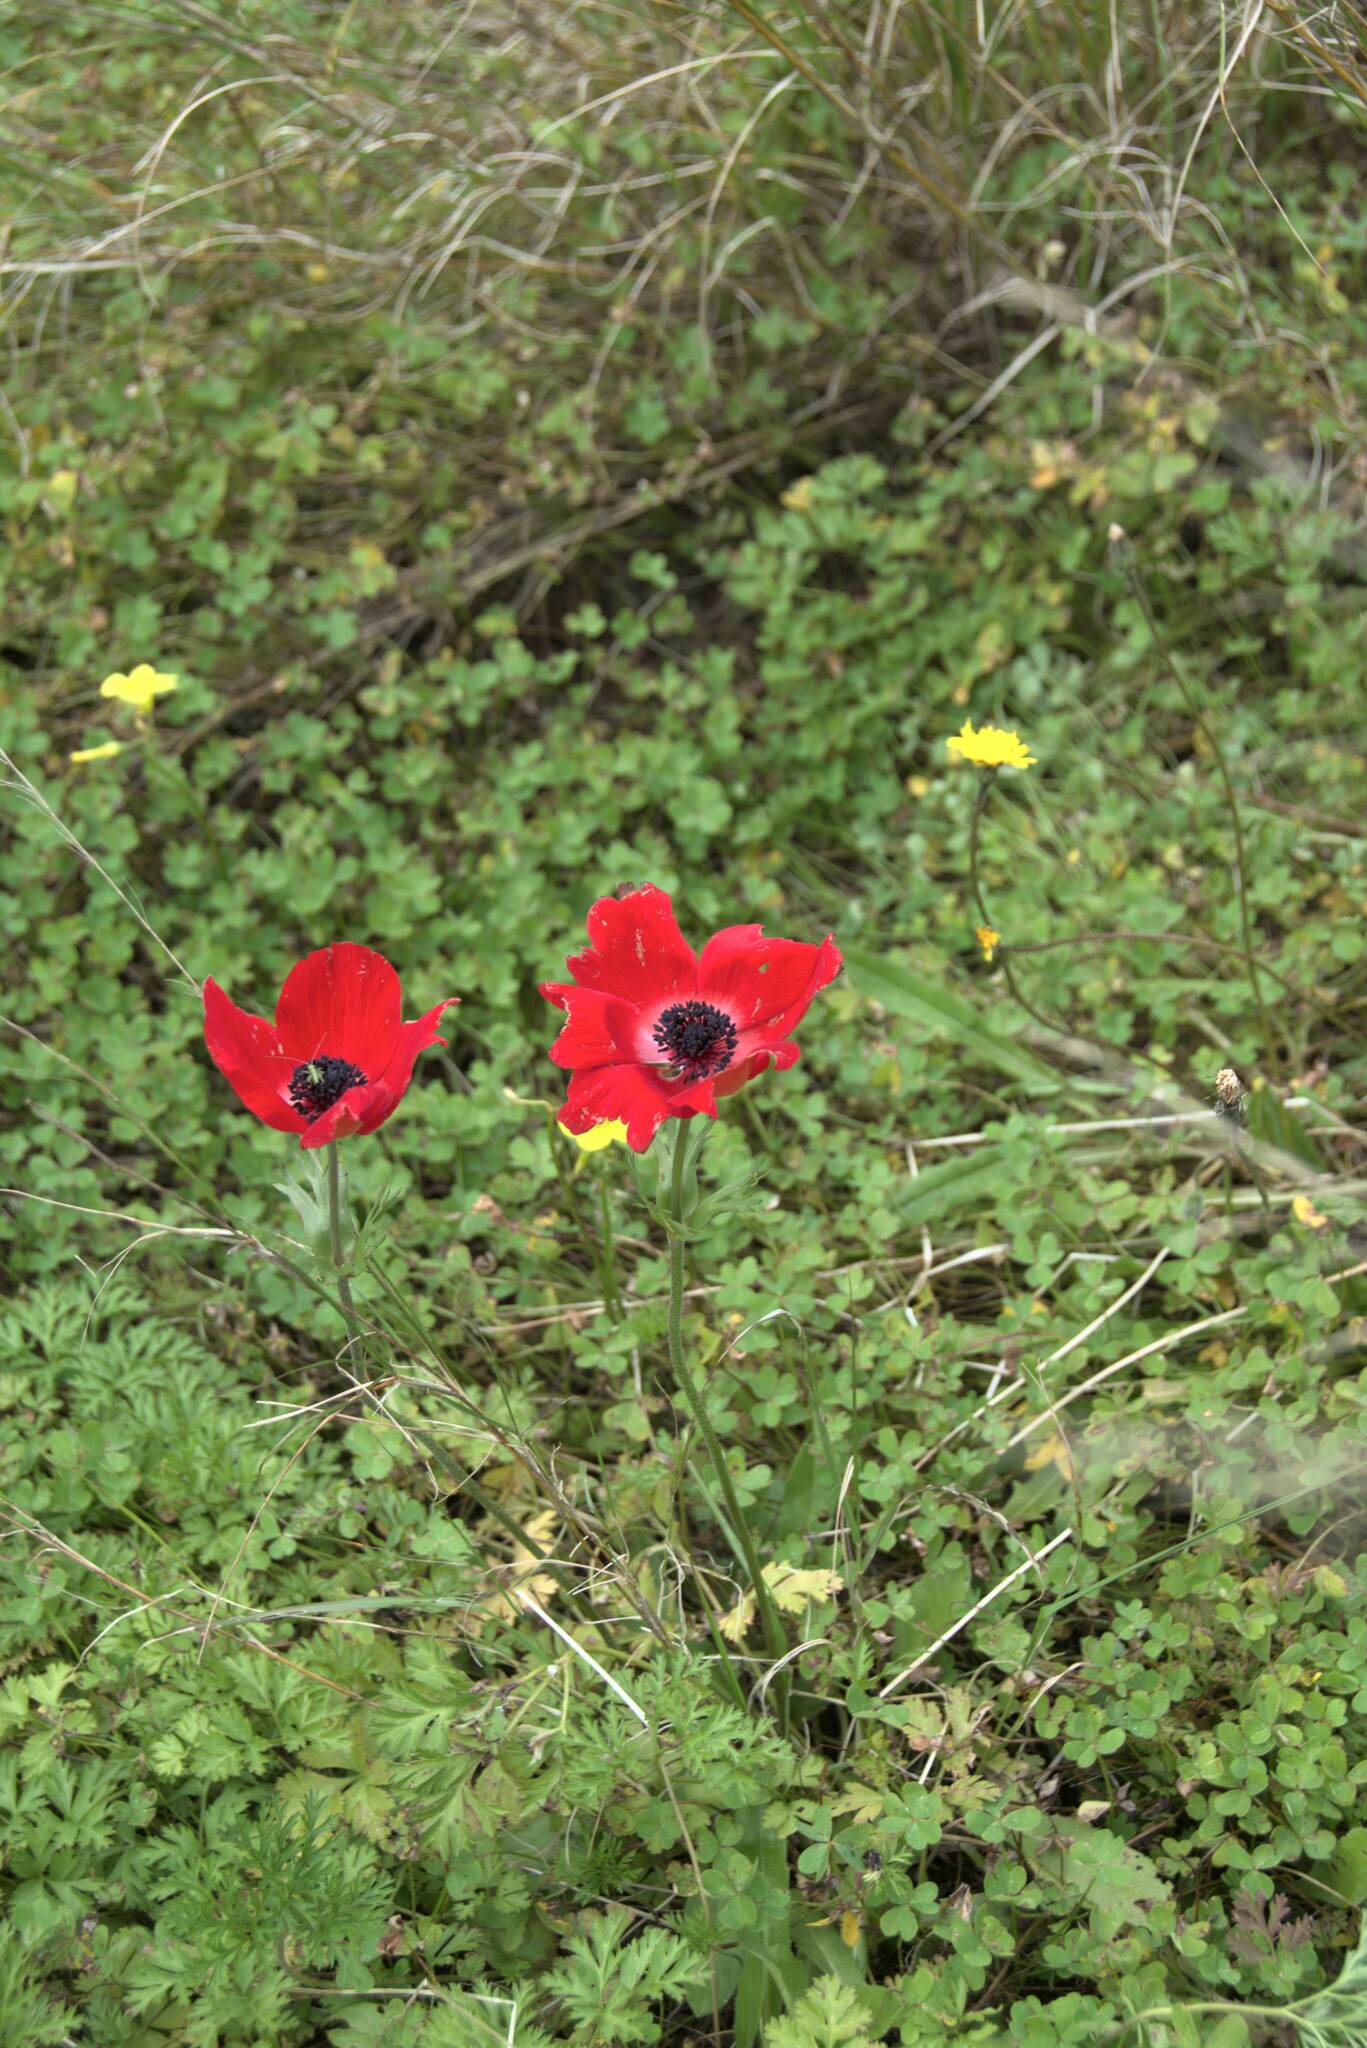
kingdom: Plantae
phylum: Tracheophyta
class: Magnoliopsida
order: Ranunculales
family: Ranunculaceae
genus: Anemone
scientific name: Anemone coronaria
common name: Poppy anemone
